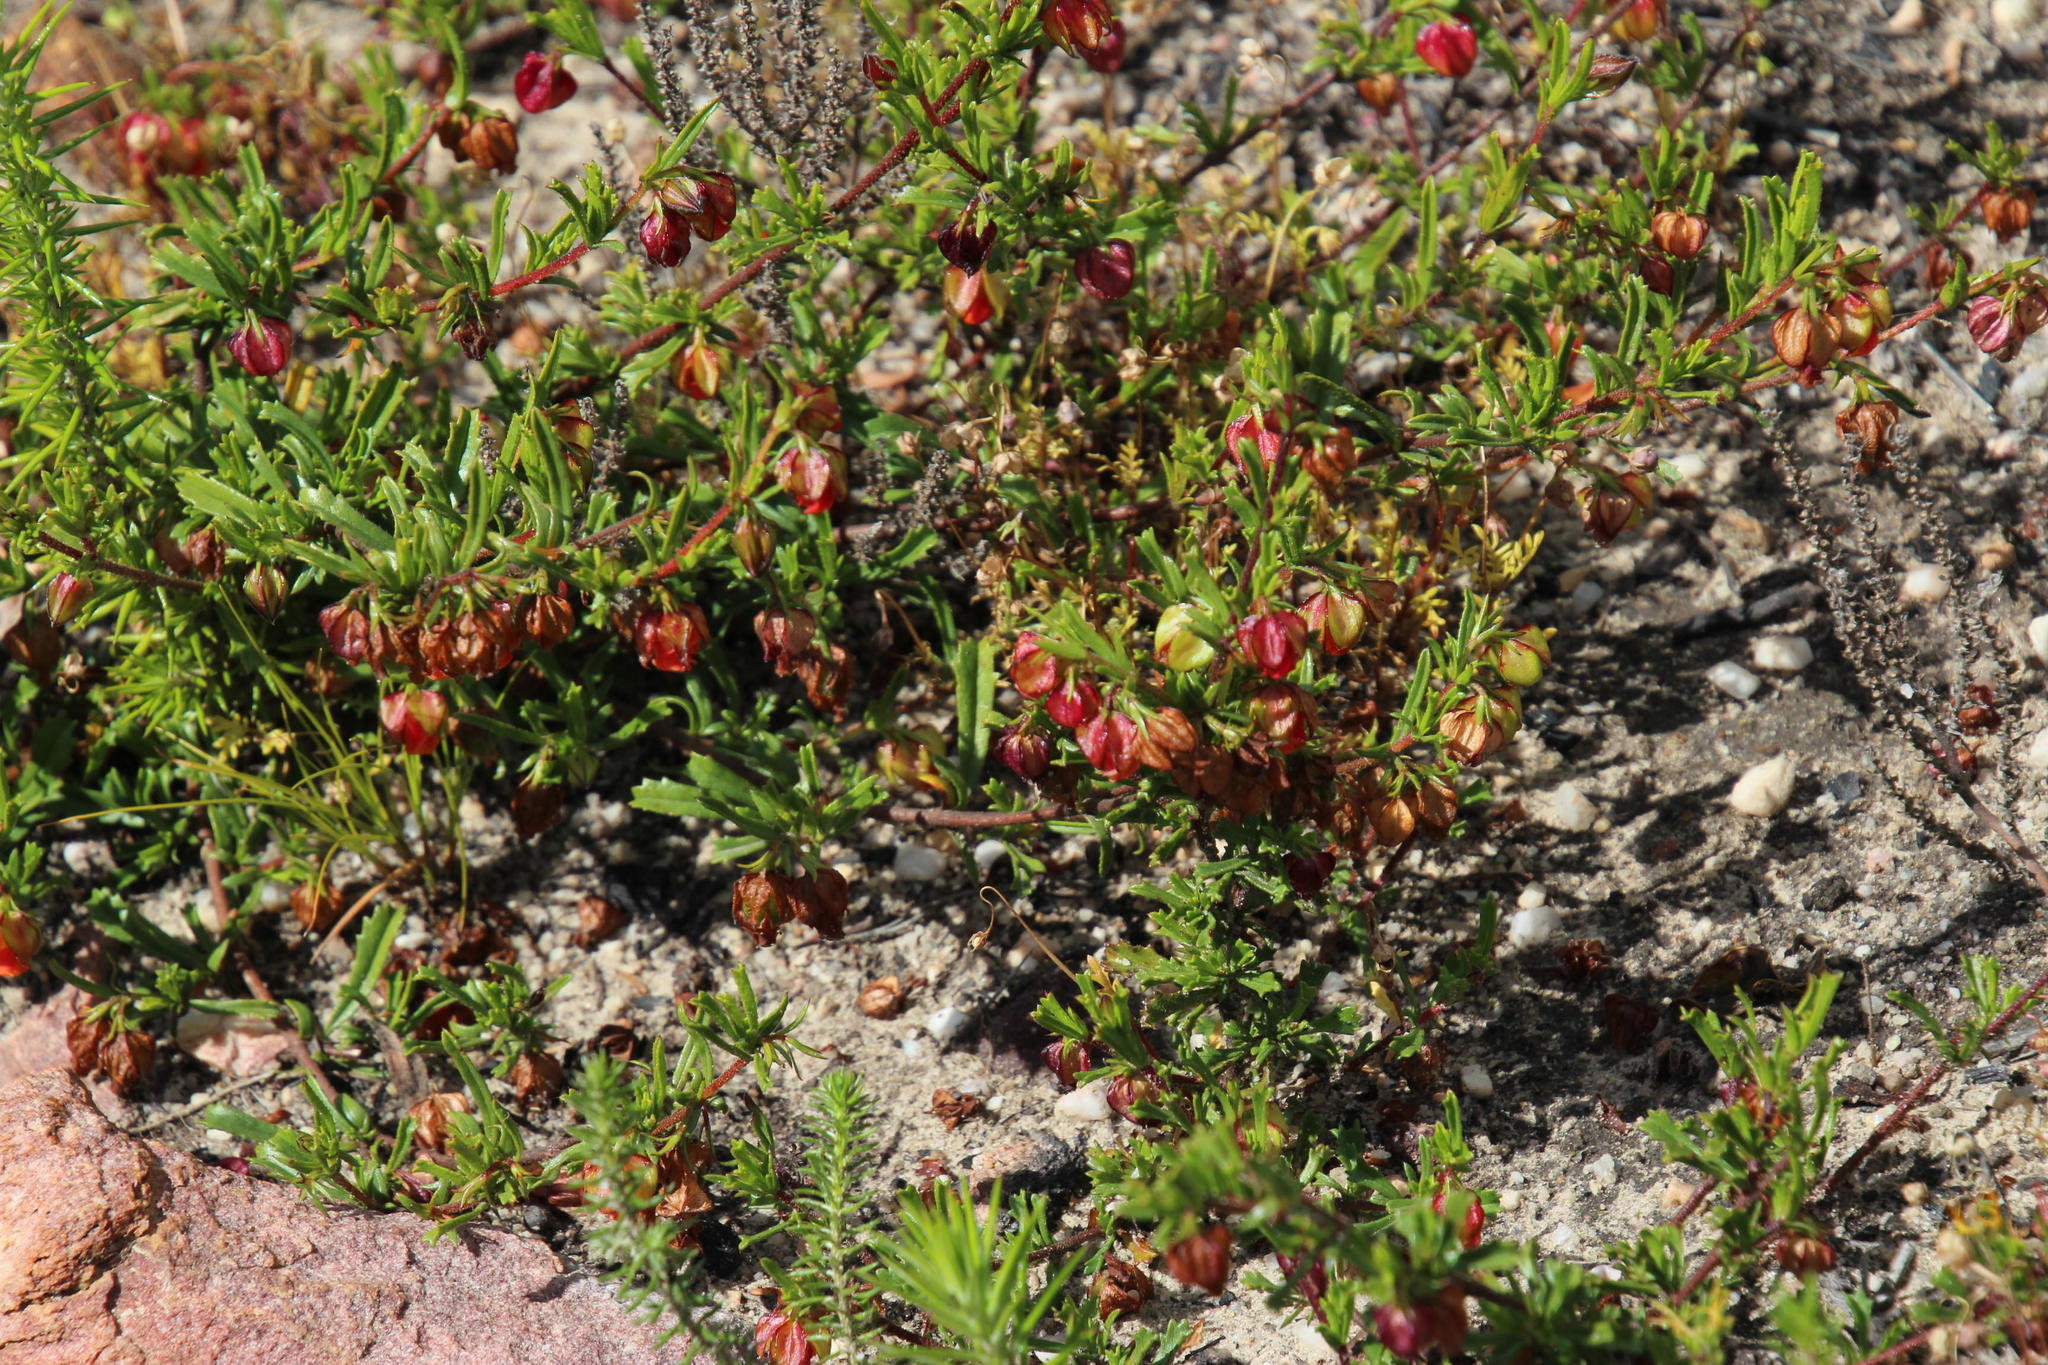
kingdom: Plantae
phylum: Tracheophyta
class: Magnoliopsida
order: Malvales
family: Malvaceae
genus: Hermannia
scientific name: Hermannia angularis
